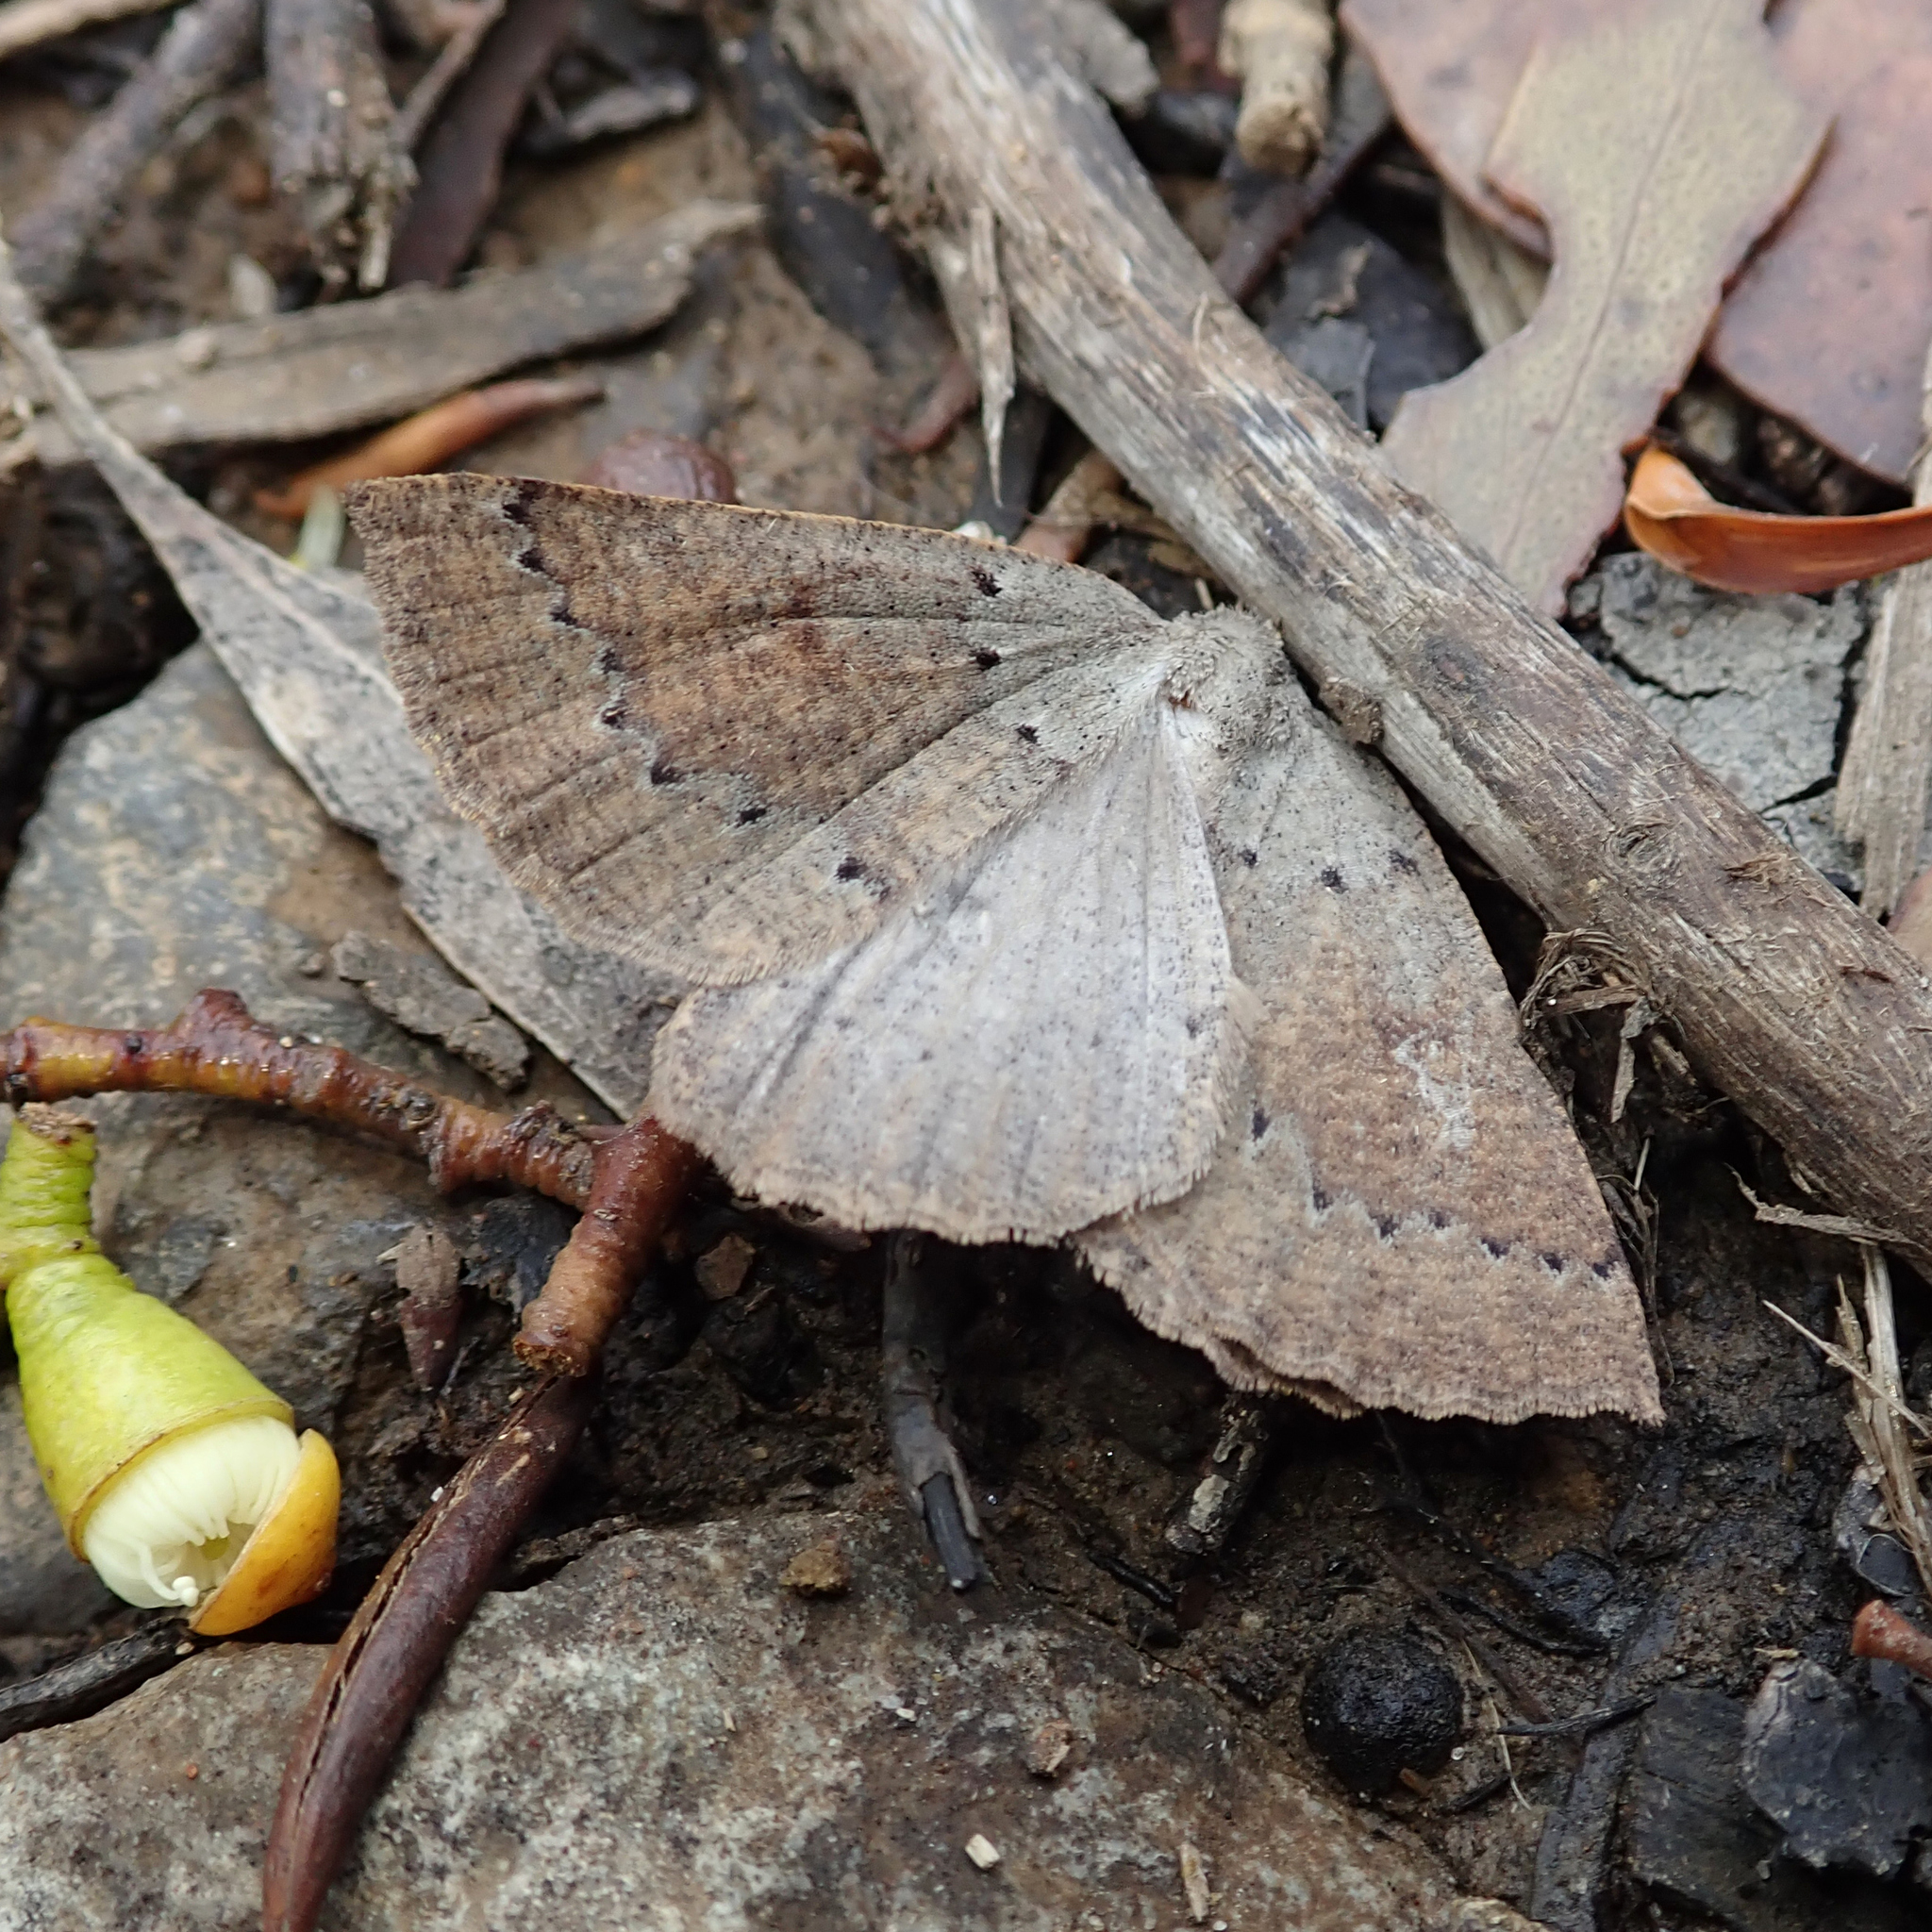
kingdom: Animalia
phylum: Arthropoda
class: Insecta
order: Lepidoptera
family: Geometridae
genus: Dolabrossa
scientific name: Dolabrossa suffusa
